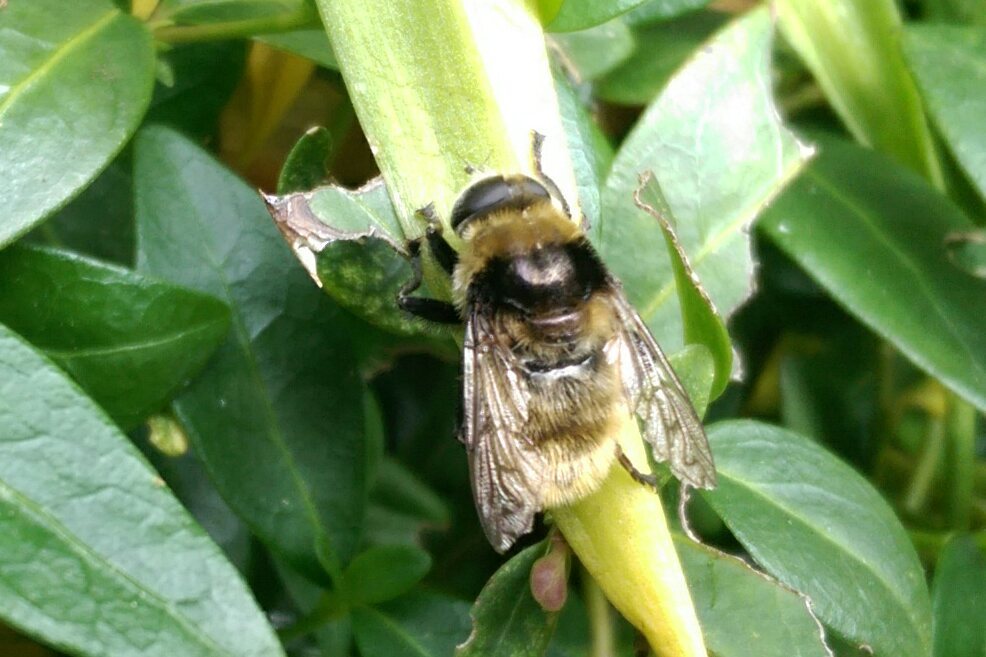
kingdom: Animalia
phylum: Arthropoda
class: Insecta
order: Diptera
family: Syrphidae
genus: Merodon
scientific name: Merodon equestris
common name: Greater bulb-fly
